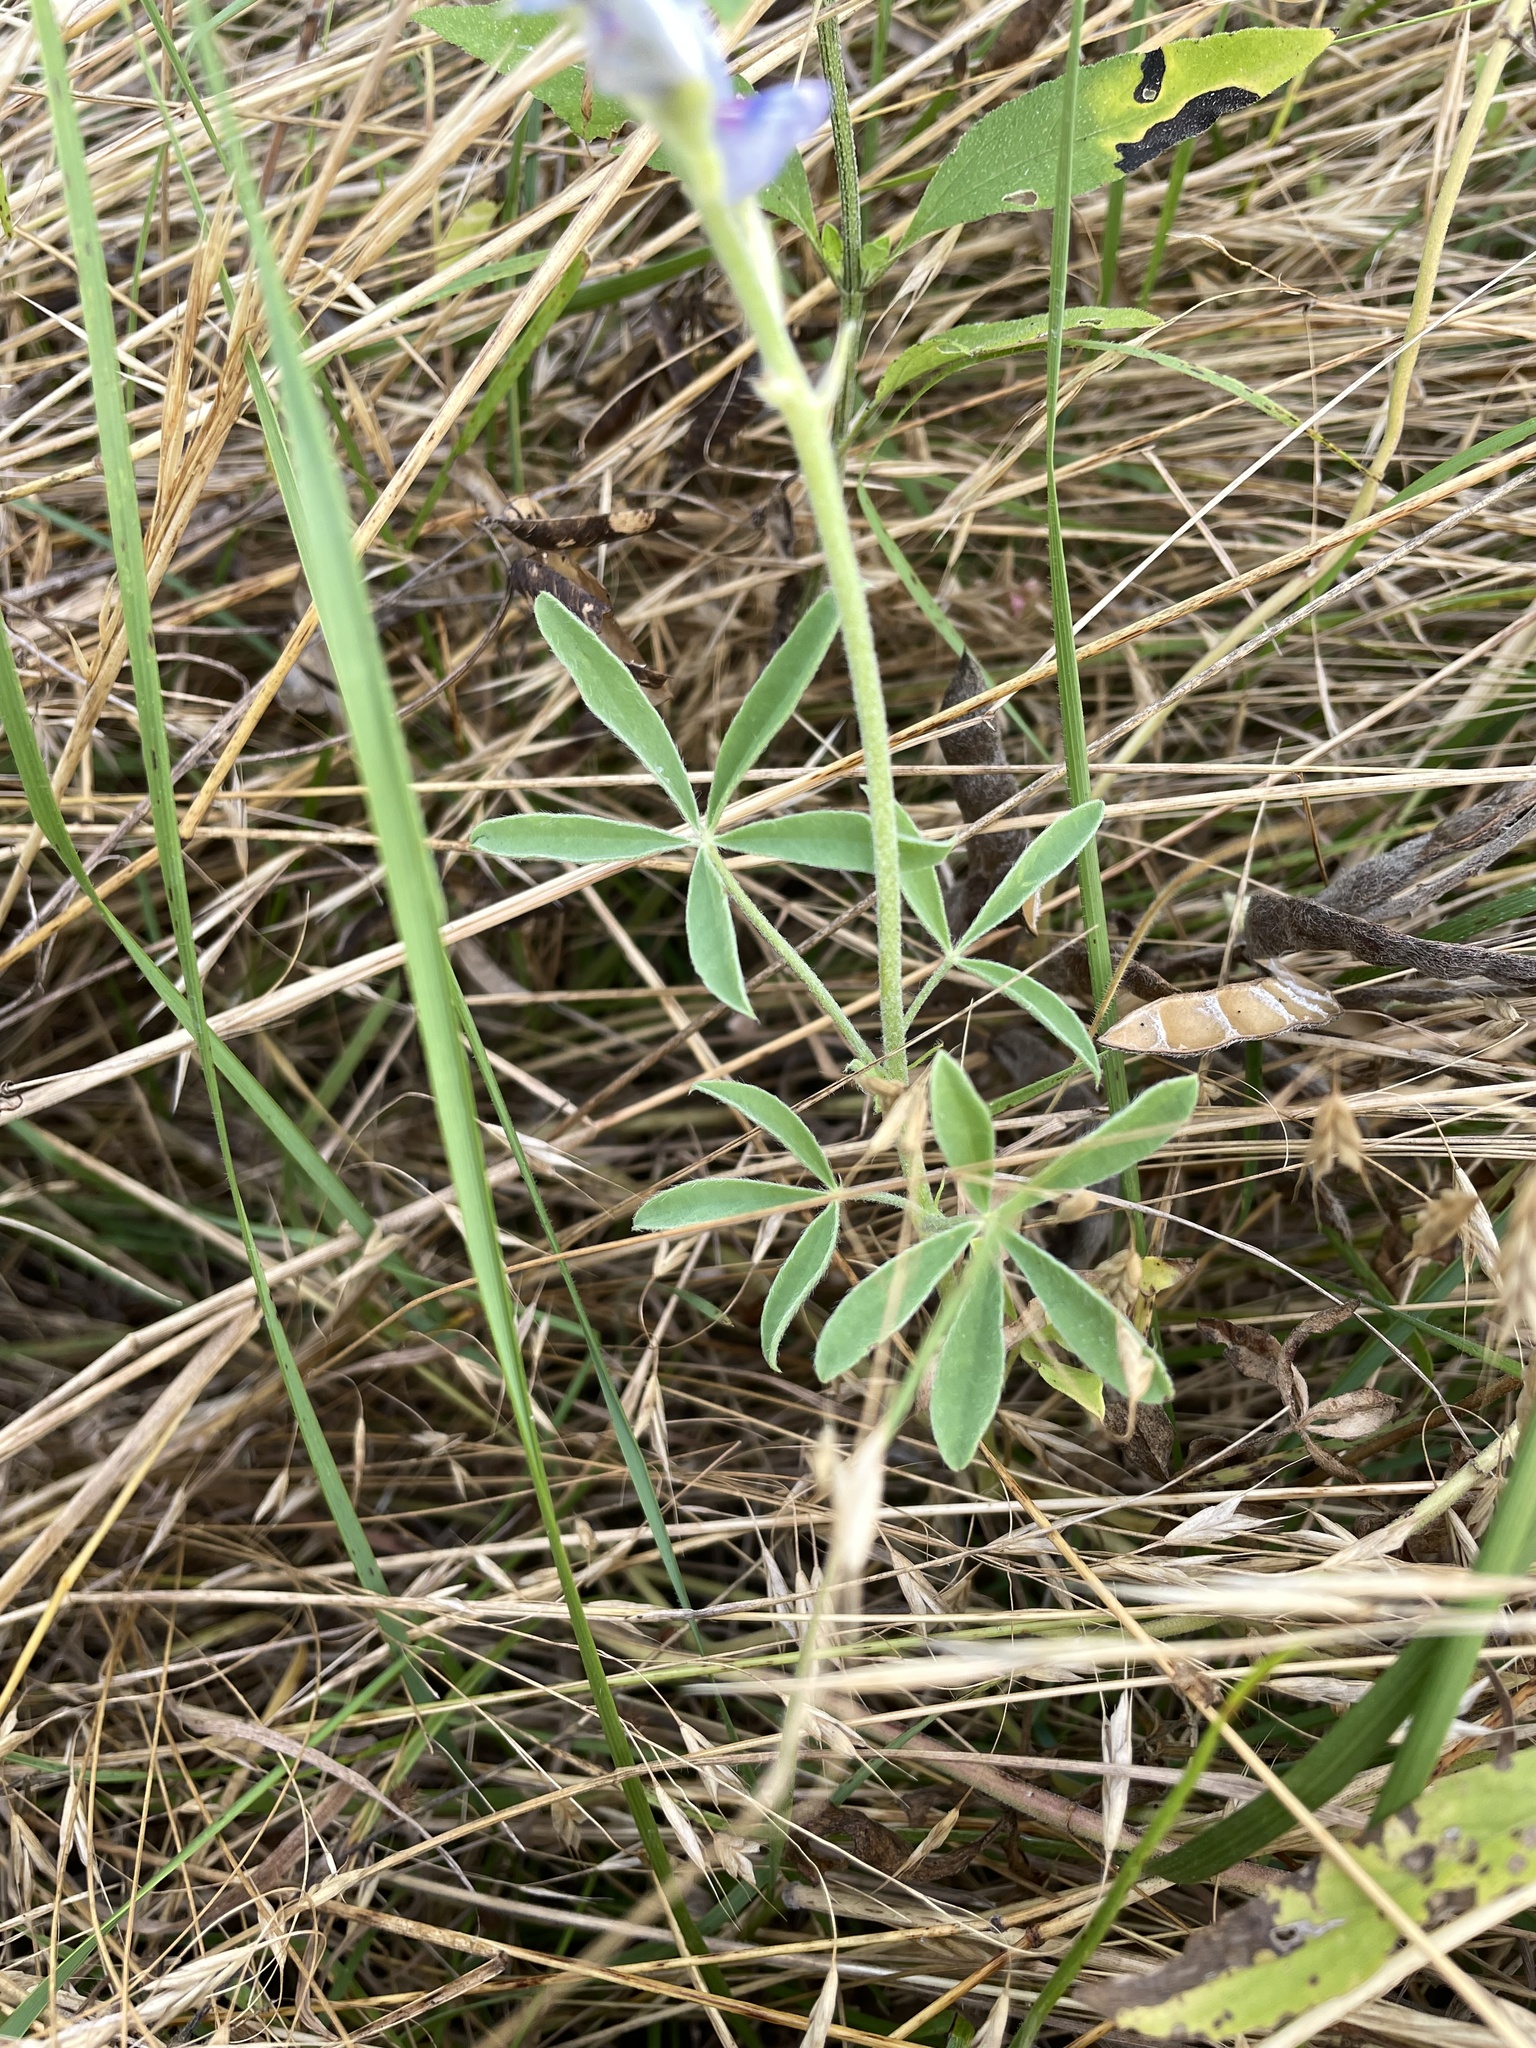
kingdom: Plantae
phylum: Tracheophyta
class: Magnoliopsida
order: Fabales
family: Fabaceae
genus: Lupinus
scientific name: Lupinus texensis
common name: Texas bluebonnet
